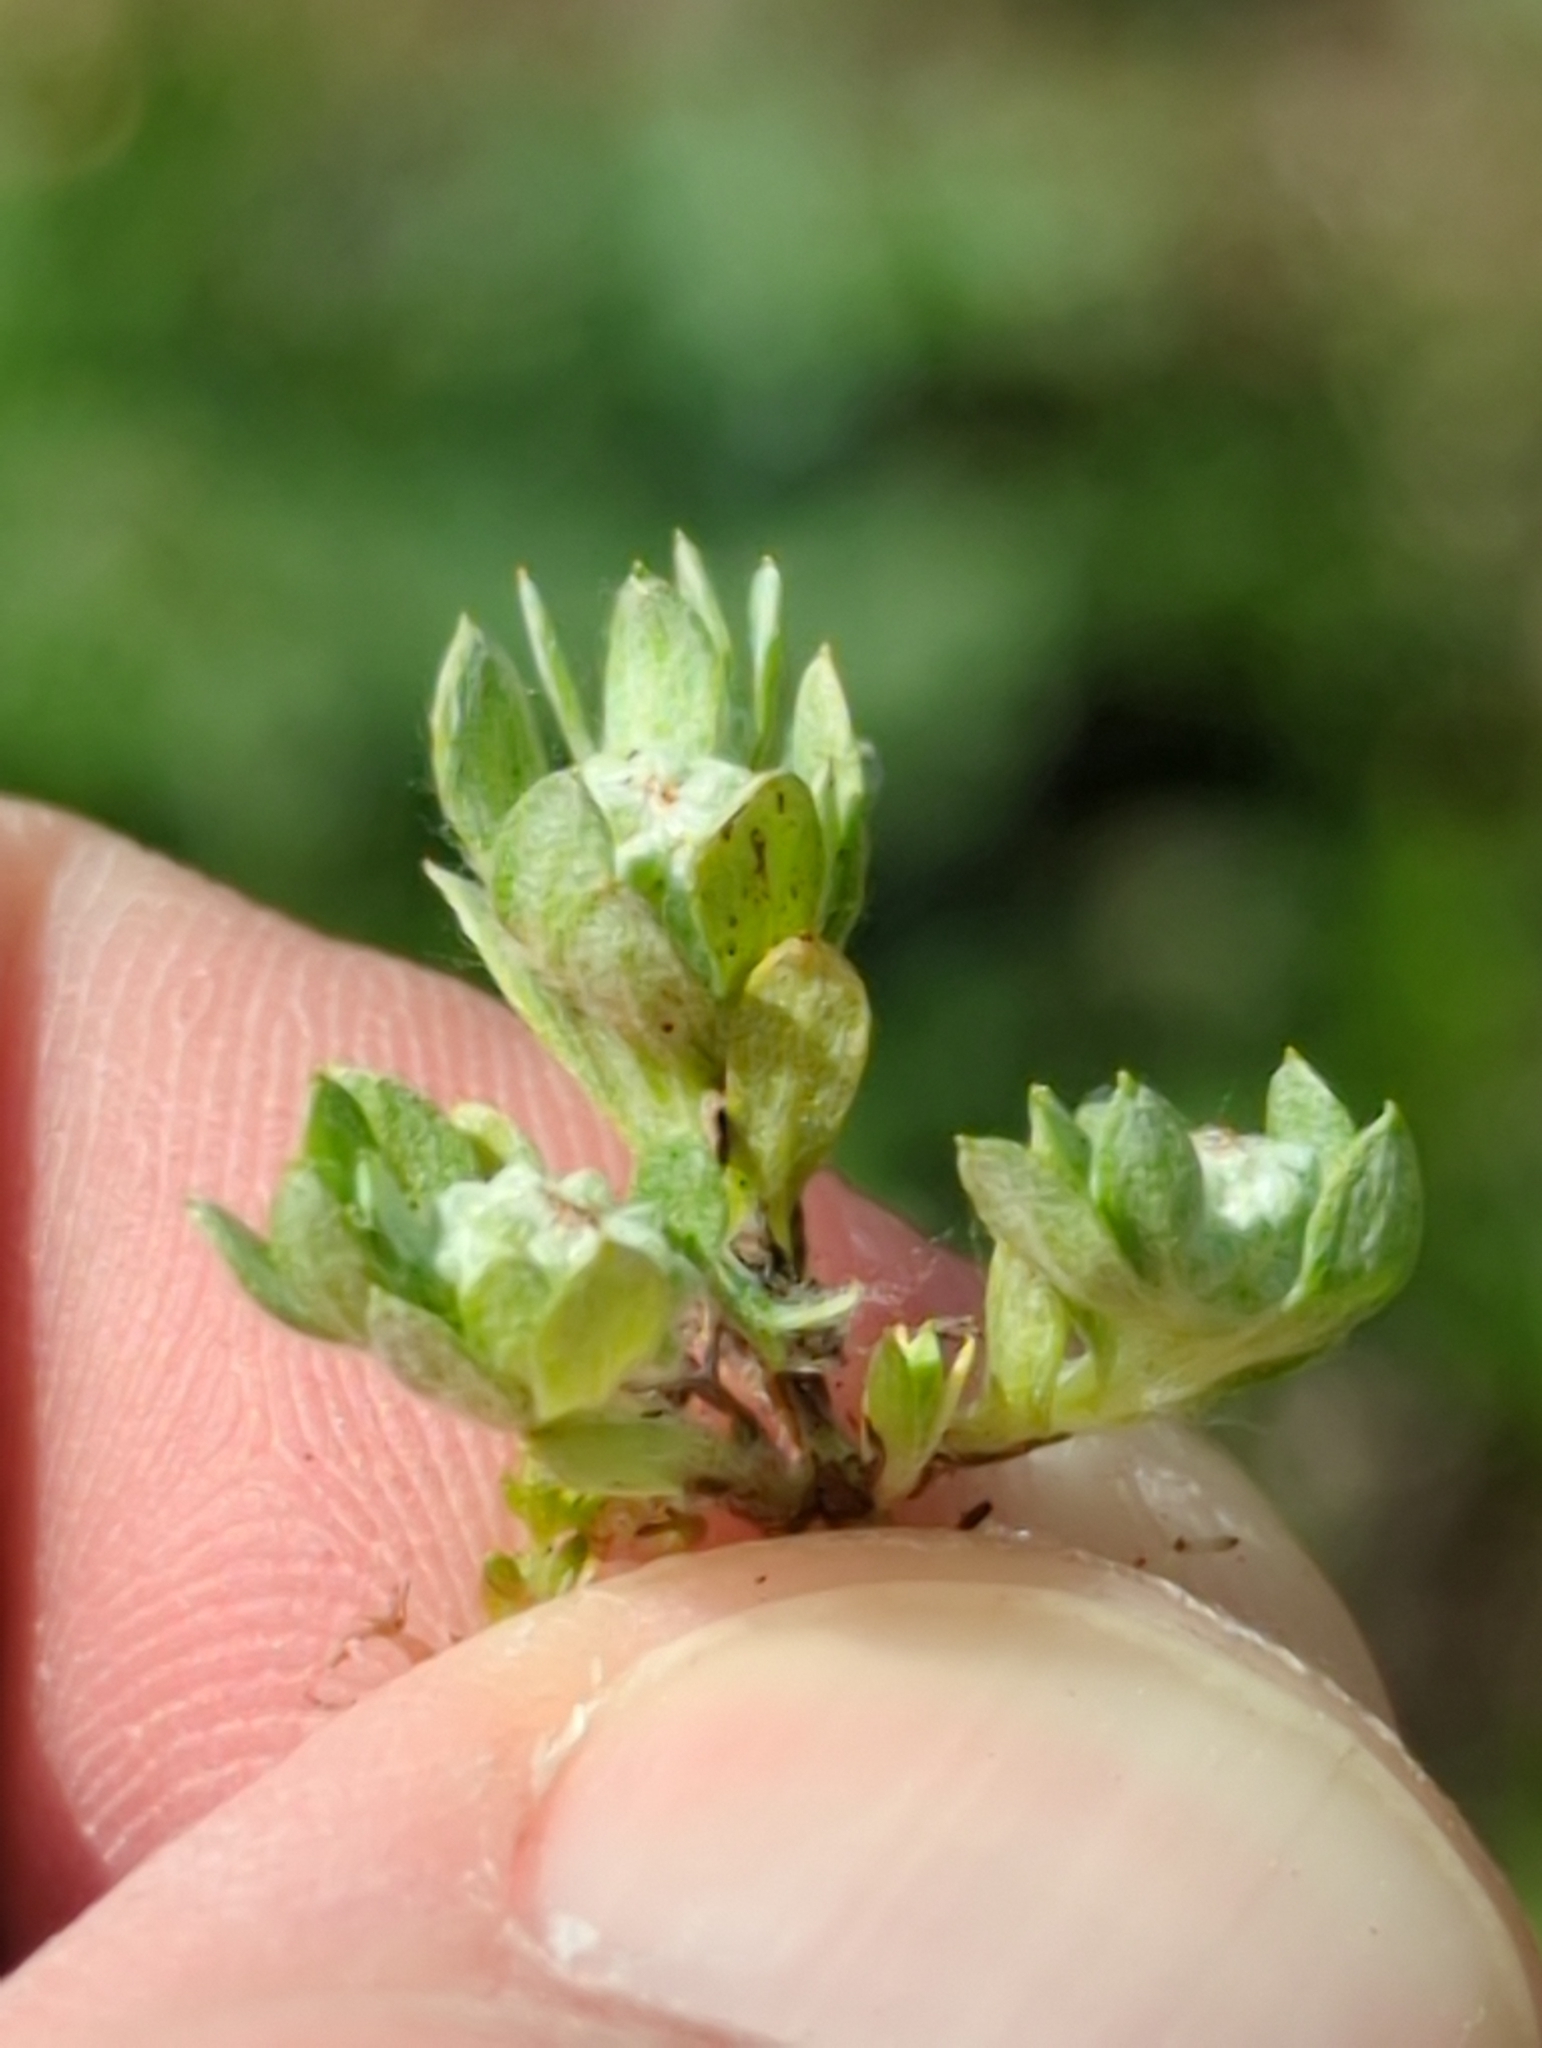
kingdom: Plantae
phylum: Tracheophyta
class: Magnoliopsida
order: Asterales
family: Asteraceae
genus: Psilocarphus
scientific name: Psilocarphus tenellus
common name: Slender woolly-marbles
